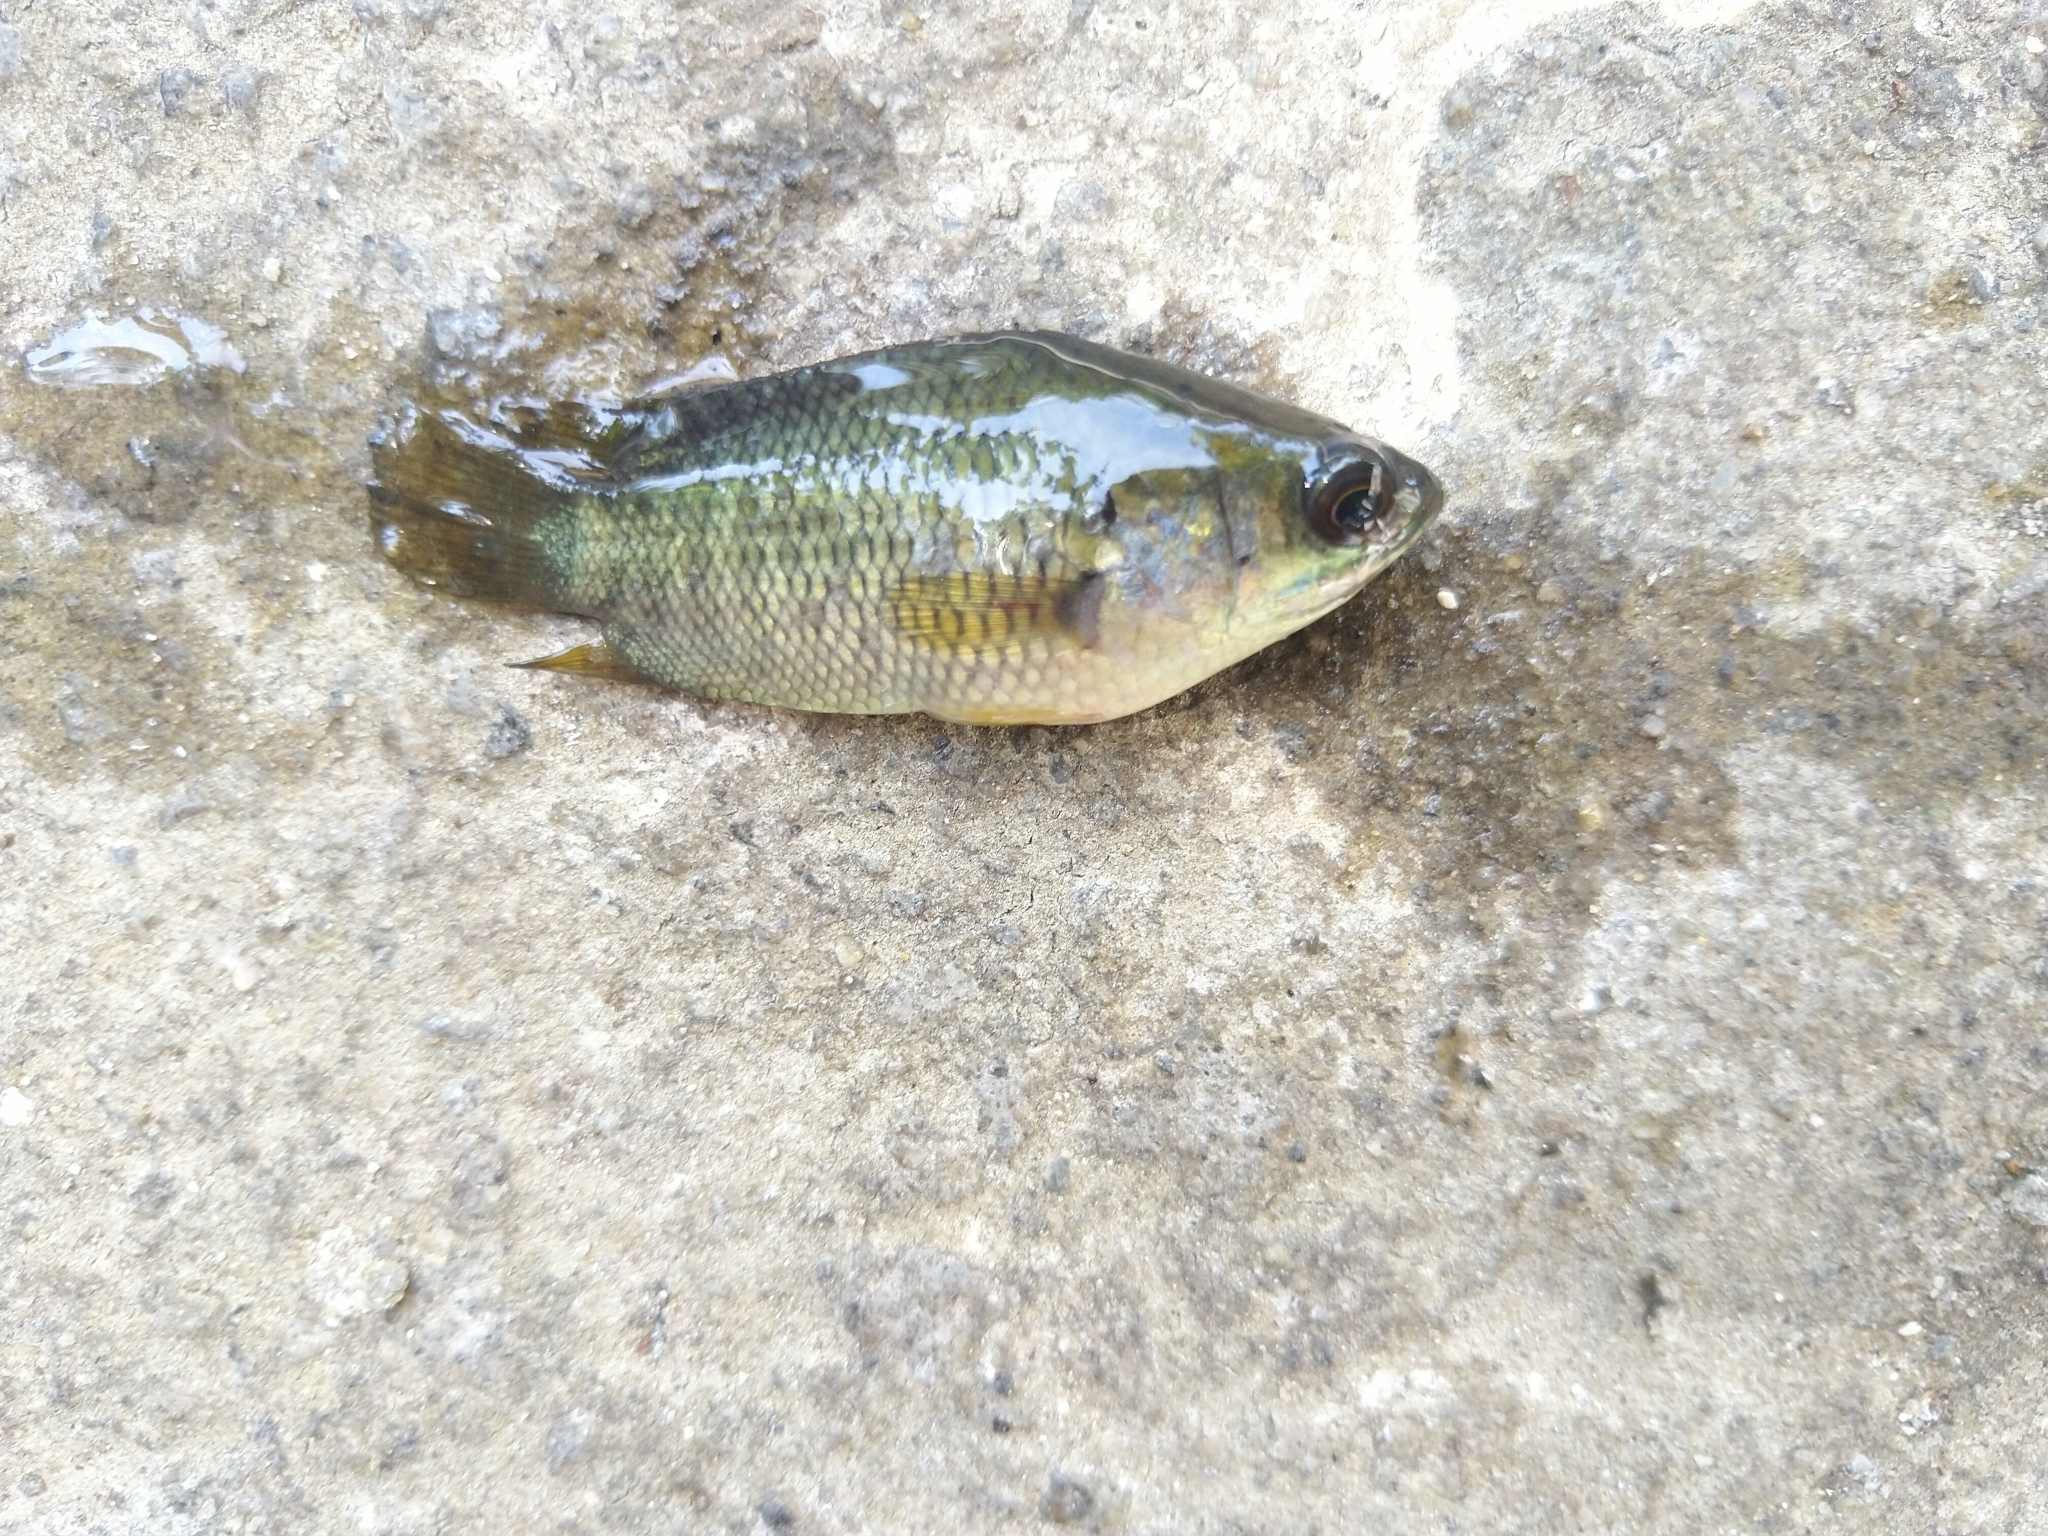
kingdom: Animalia
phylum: Chordata
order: Perciformes
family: Anabantidae
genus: Anabas
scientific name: Anabas testudineus
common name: Climbing perch
